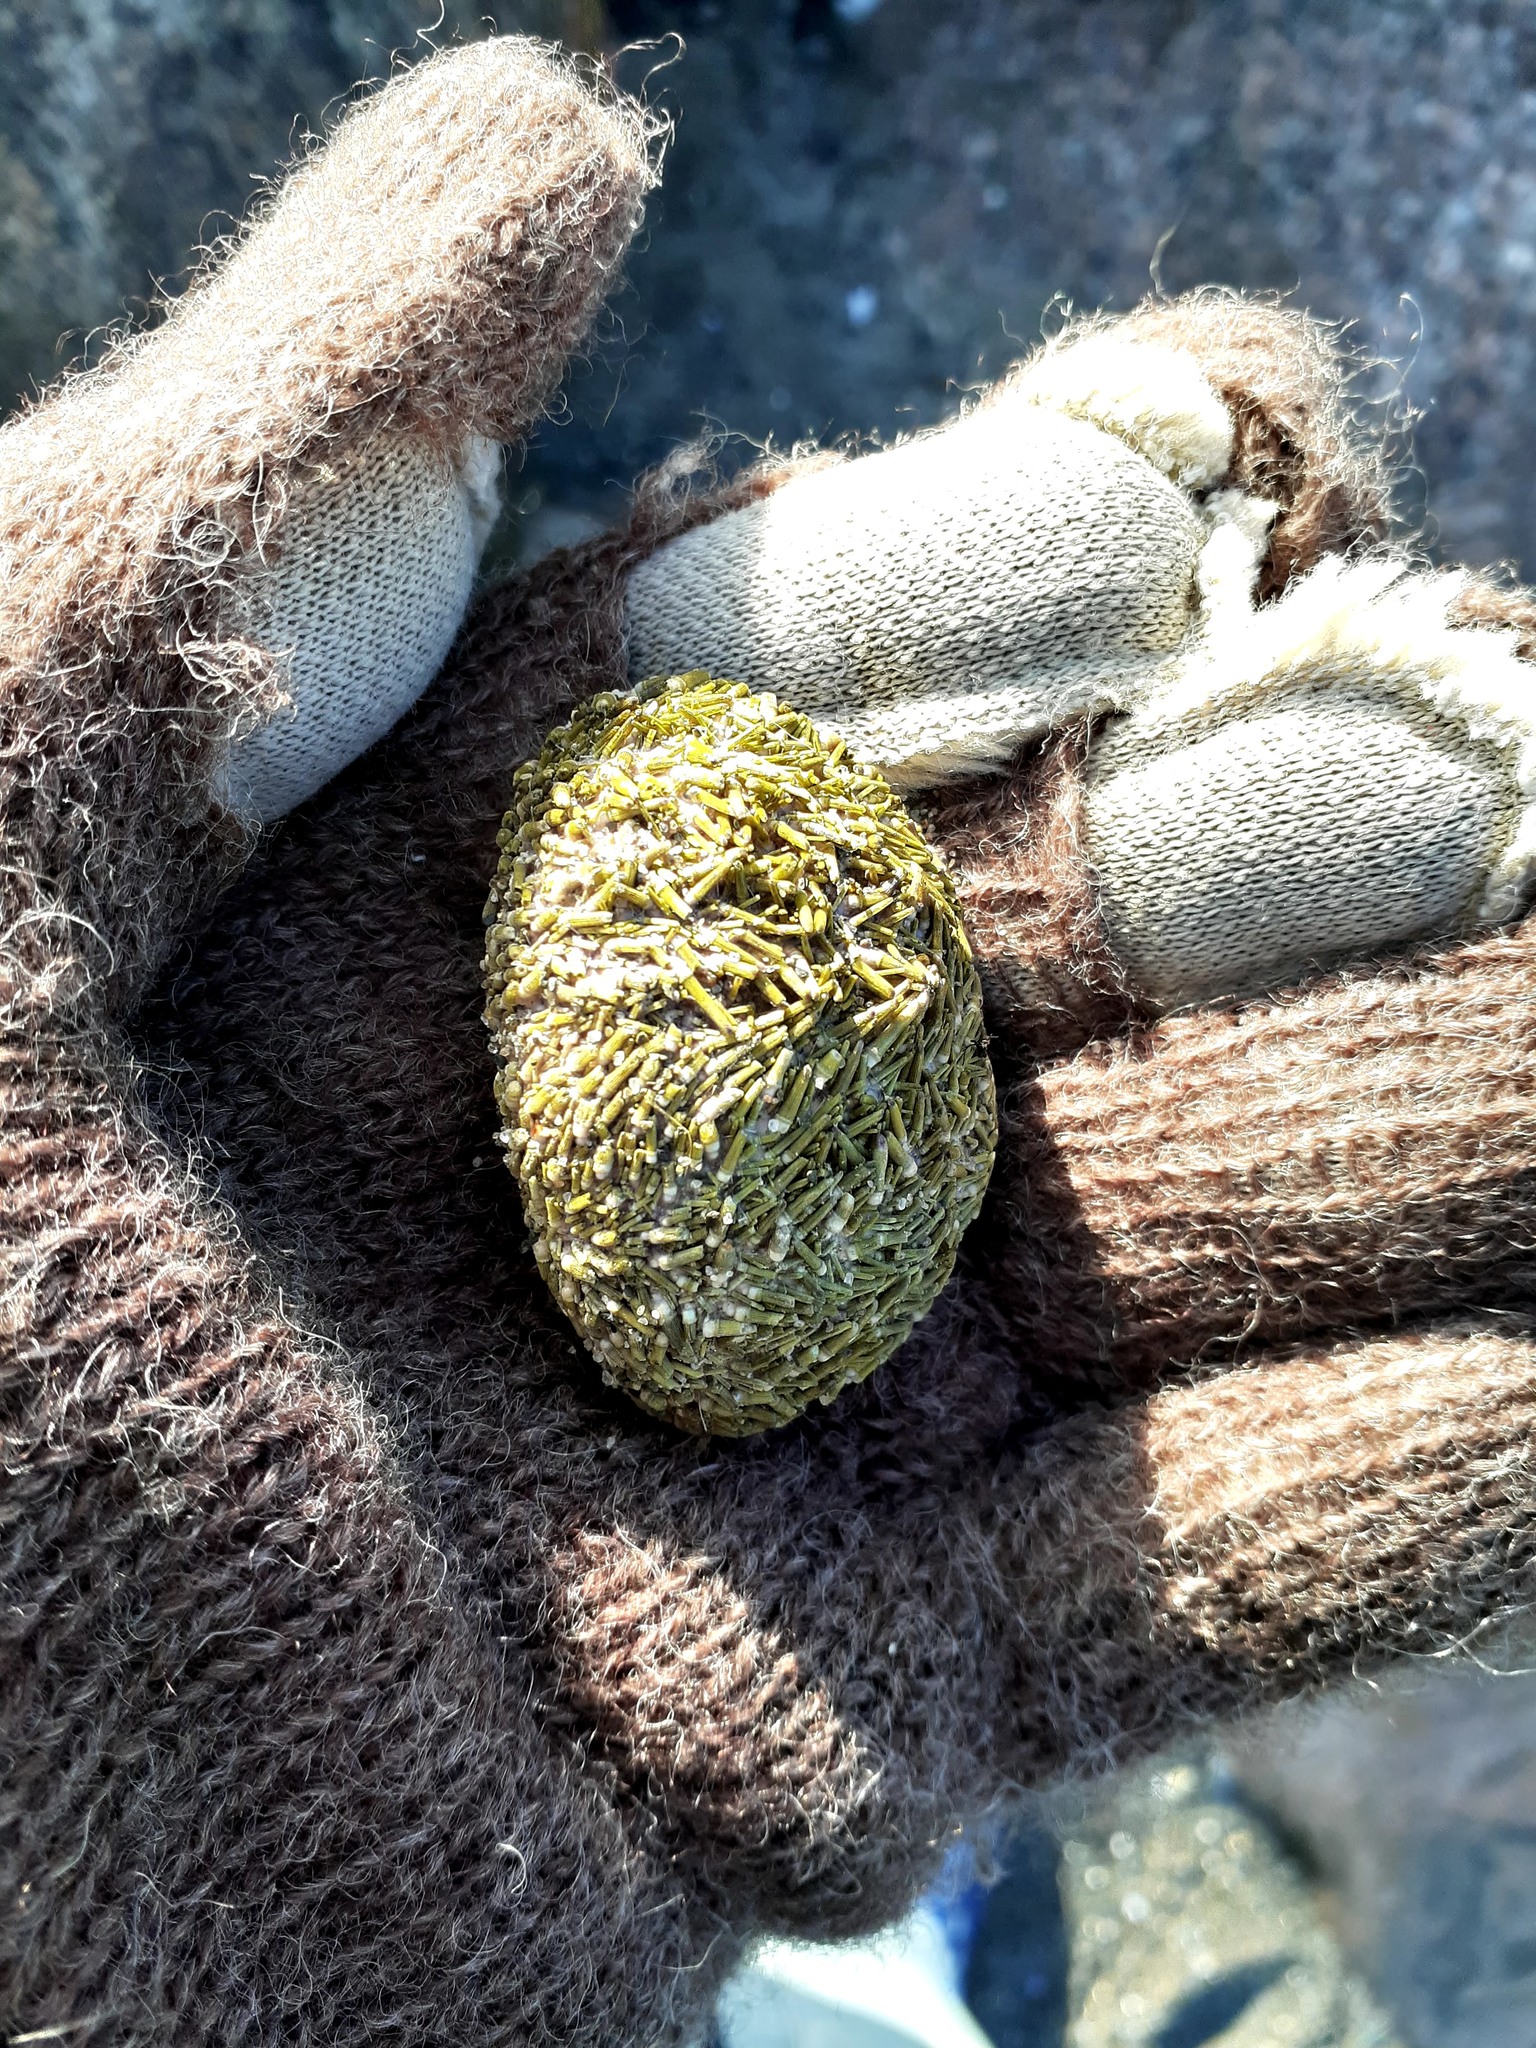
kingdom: Animalia
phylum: Echinodermata
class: Echinoidea
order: Camarodonta
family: Strongylocentrotidae
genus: Strongylocentrotus
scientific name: Strongylocentrotus droebachiensis
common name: Northern sea urchin
